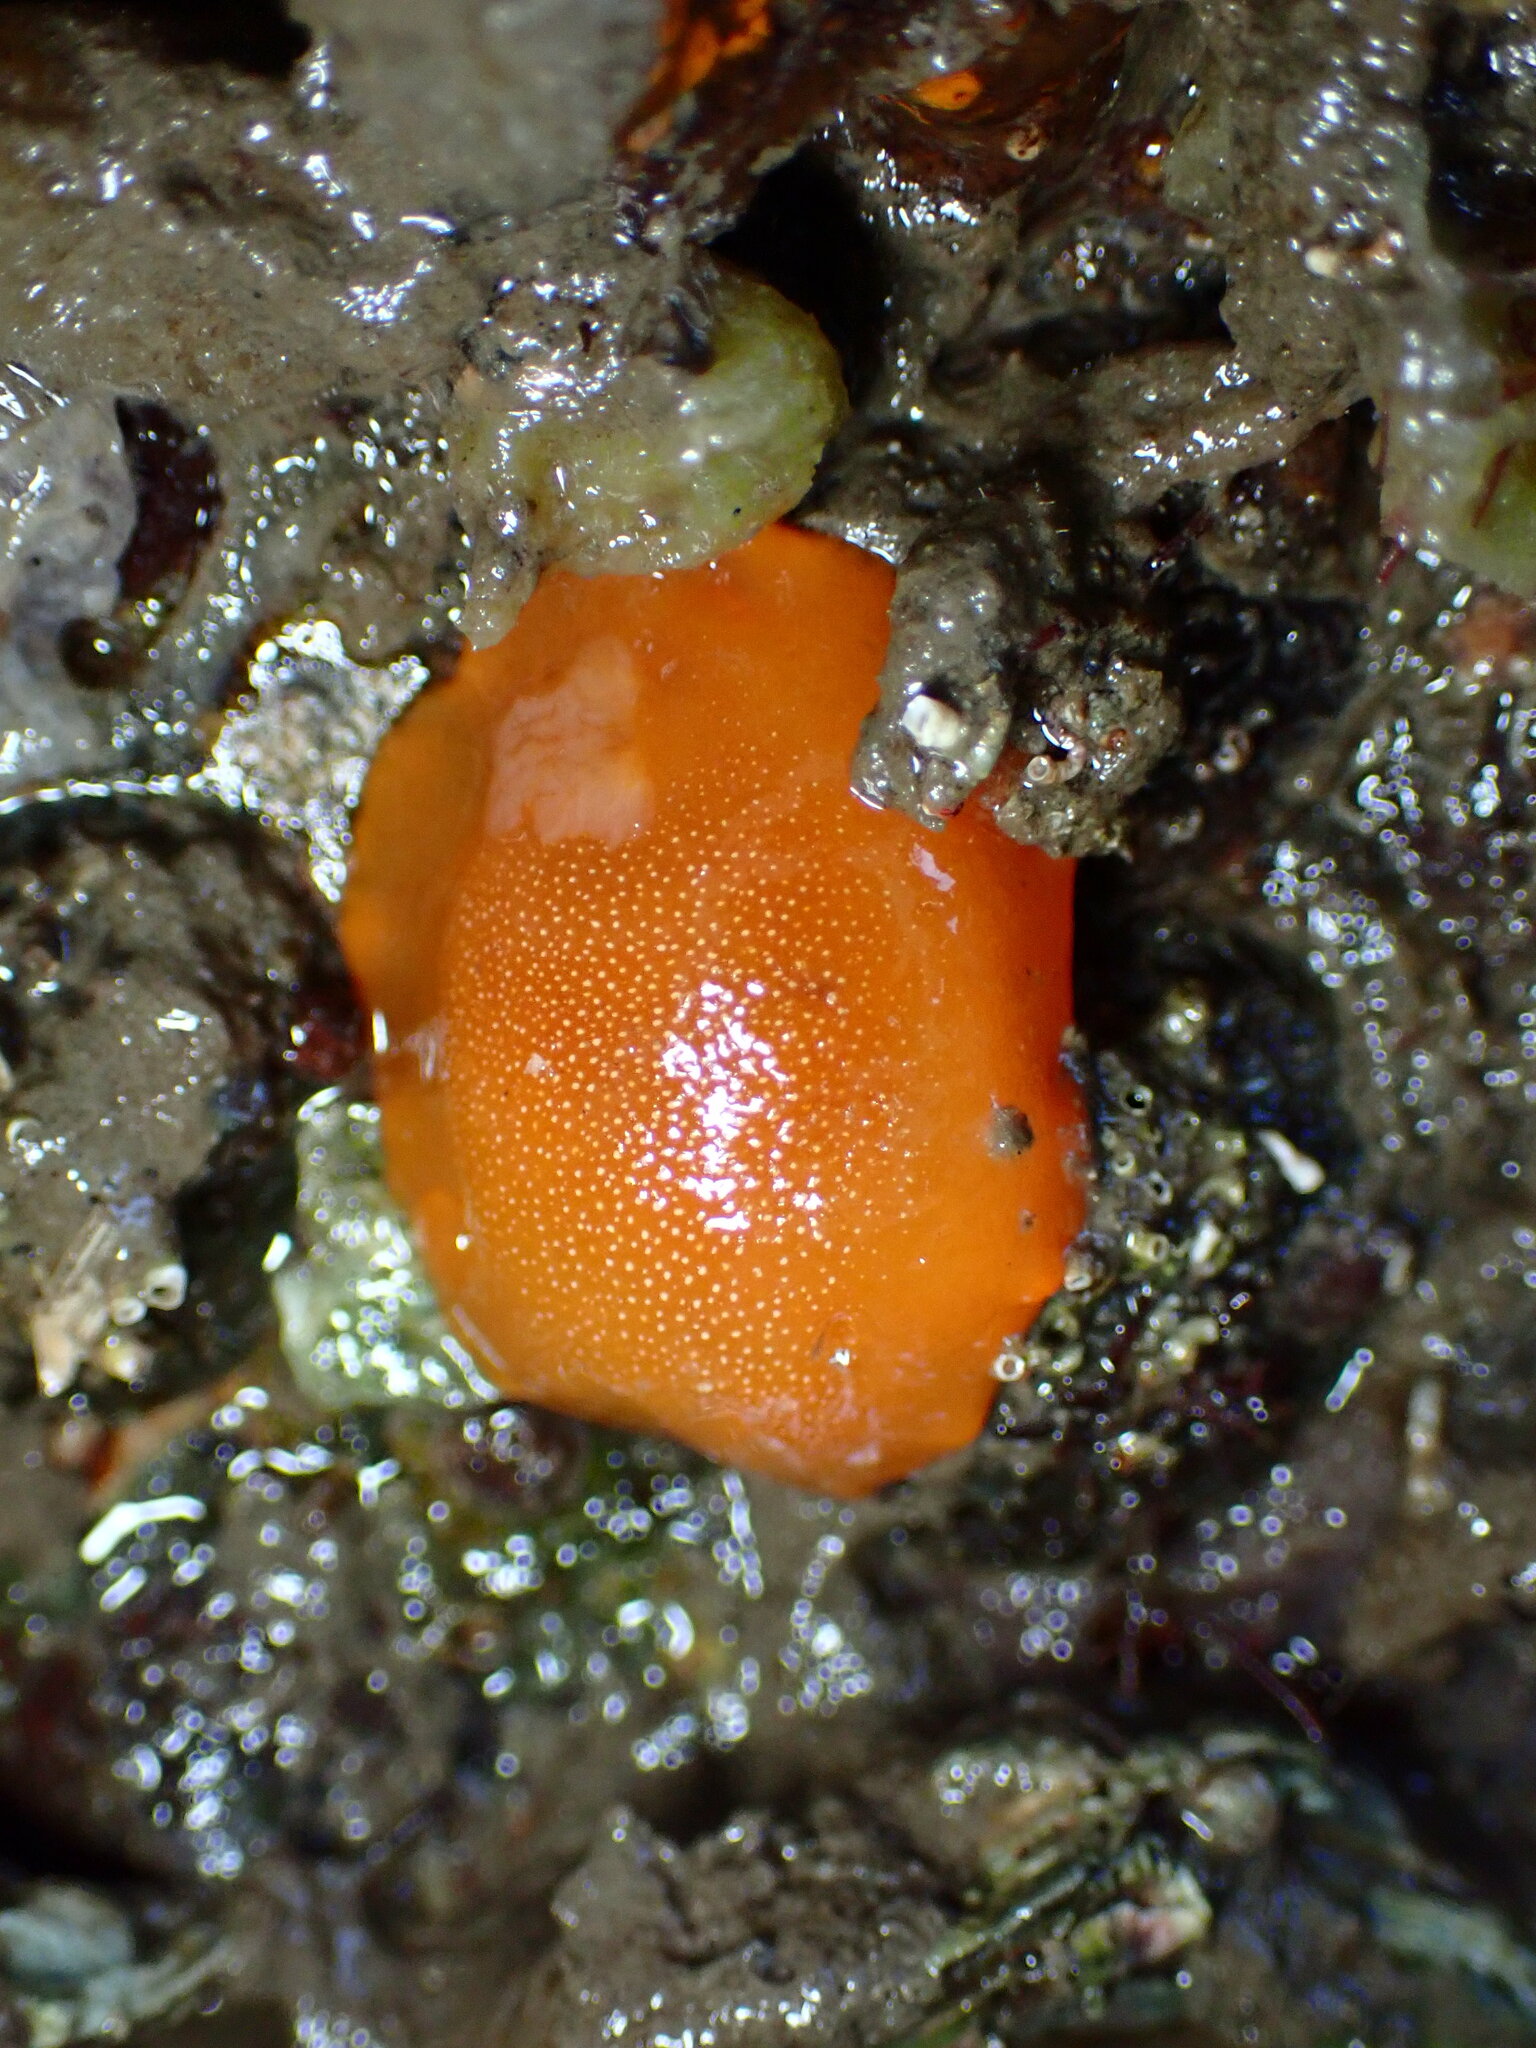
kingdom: Animalia
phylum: Mollusca
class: Gastropoda
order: Nudibranchia
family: Dendrodorididae
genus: Doriopsilla
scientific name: Doriopsilla albopunctata
